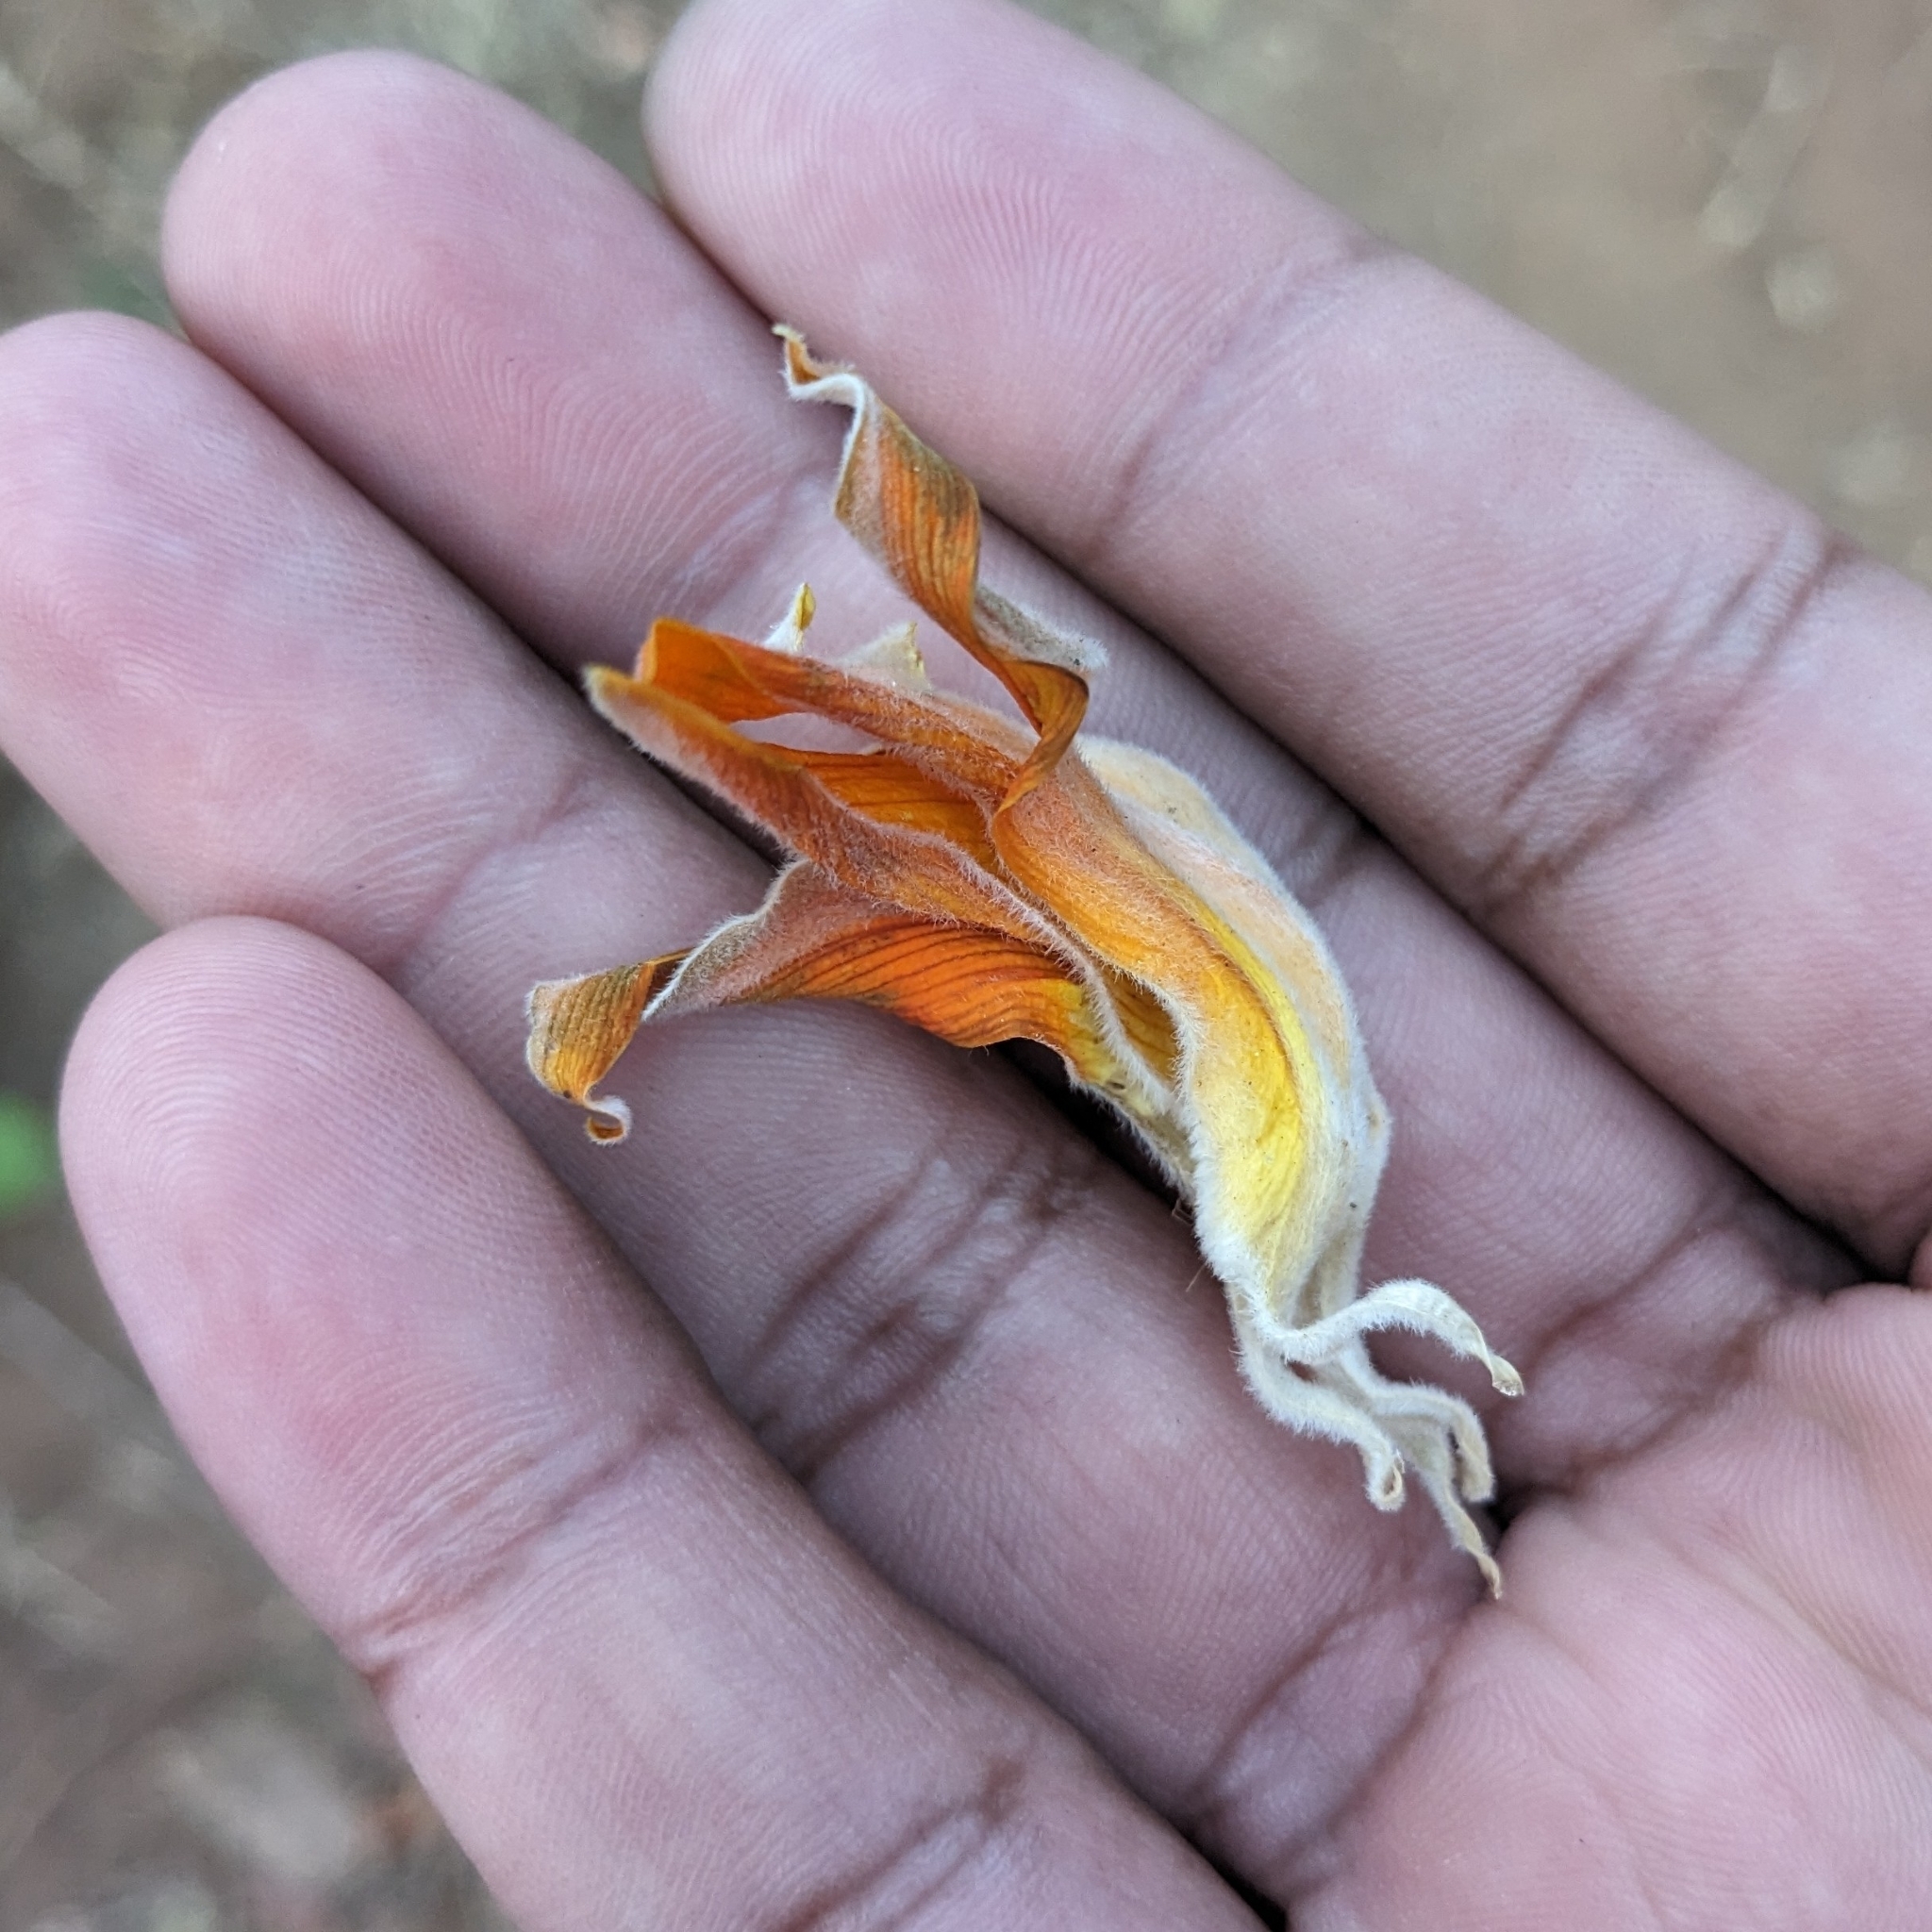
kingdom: Plantae
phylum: Tracheophyta
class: Magnoliopsida
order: Fabales
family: Fabaceae
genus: Butea
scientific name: Butea monosperma
